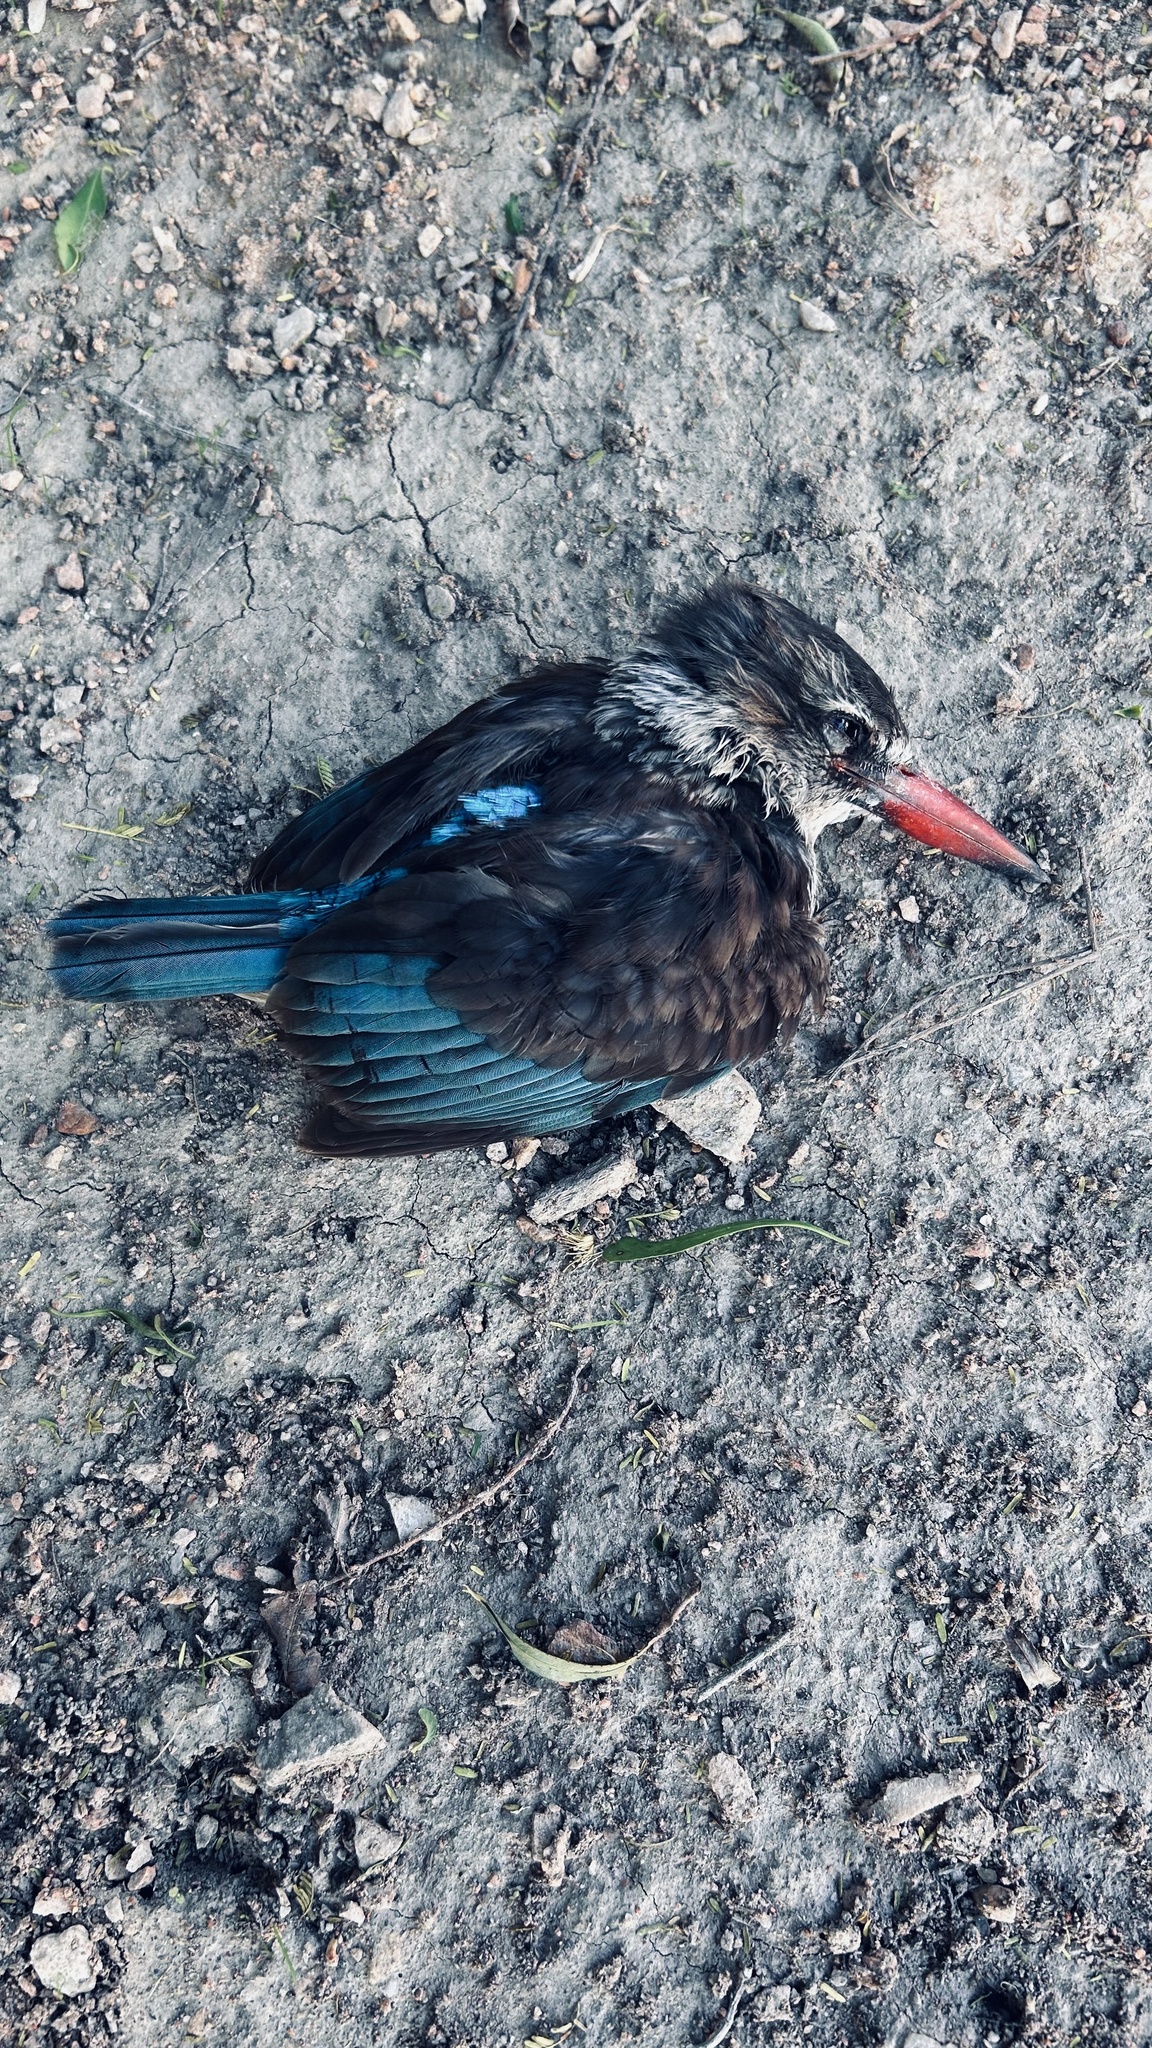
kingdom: Animalia
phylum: Chordata
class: Aves
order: Coraciiformes
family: Alcedinidae
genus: Halcyon
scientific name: Halcyon albiventris
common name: Brown-hooded kingfisher
